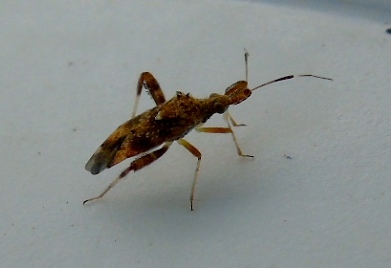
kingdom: Animalia
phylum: Arthropoda
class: Insecta
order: Hemiptera
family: Miridae
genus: Neurocolpus
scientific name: Neurocolpus mexicanus
